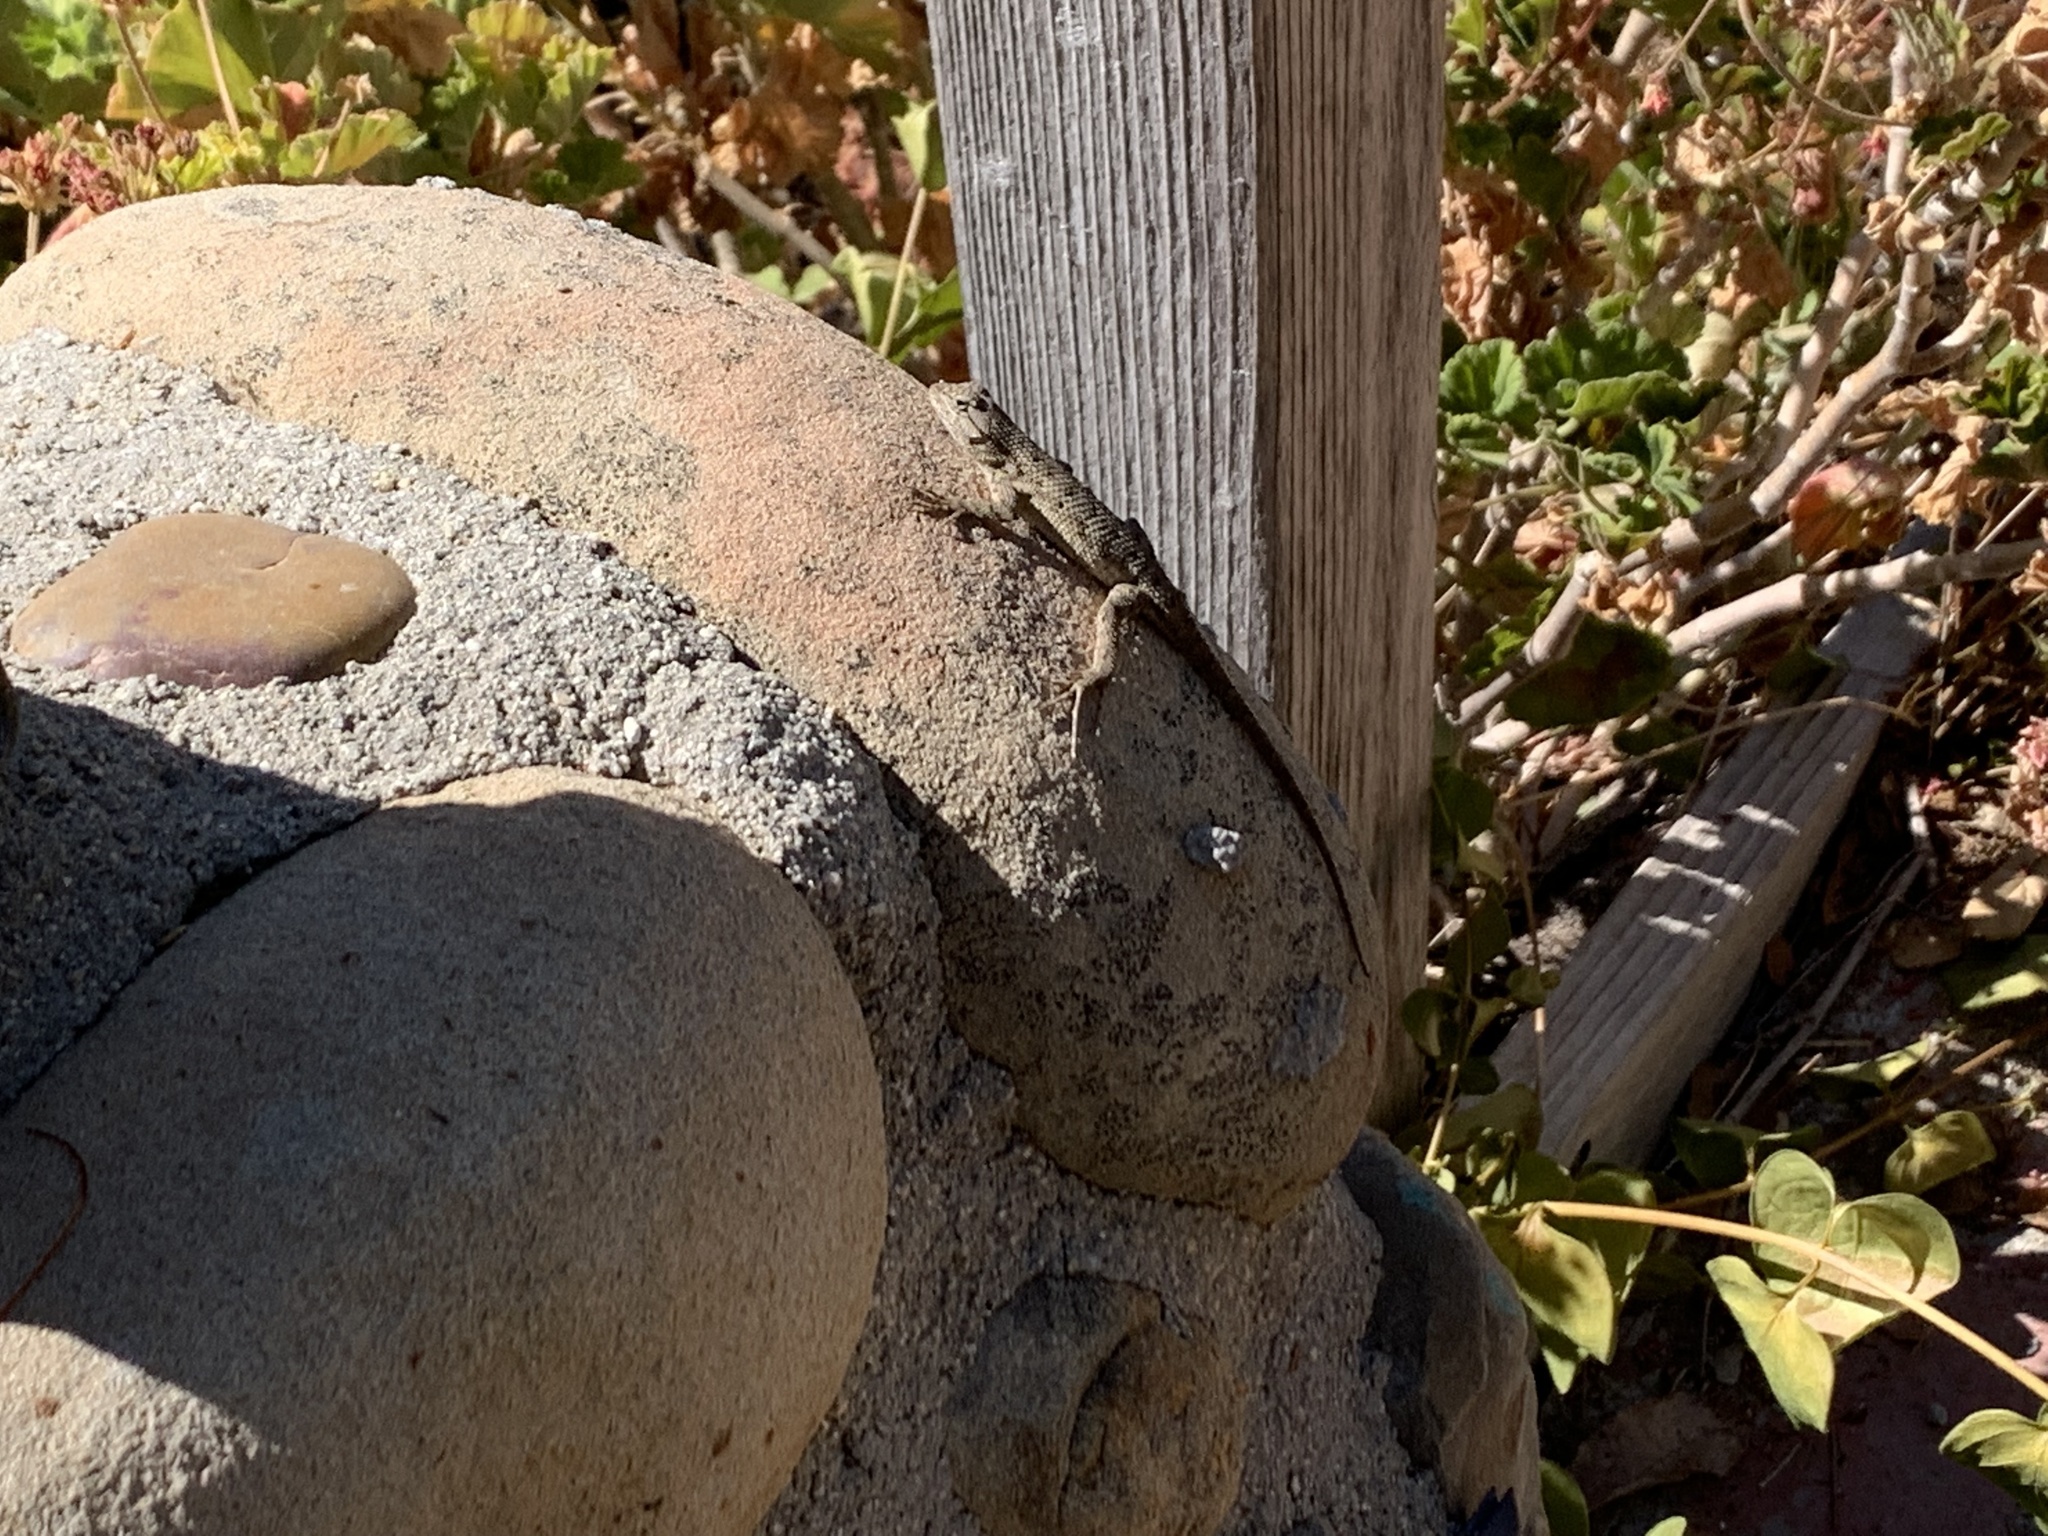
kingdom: Animalia
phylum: Chordata
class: Squamata
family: Phrynosomatidae
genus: Sceloporus
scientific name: Sceloporus occidentalis
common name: Western fence lizard
